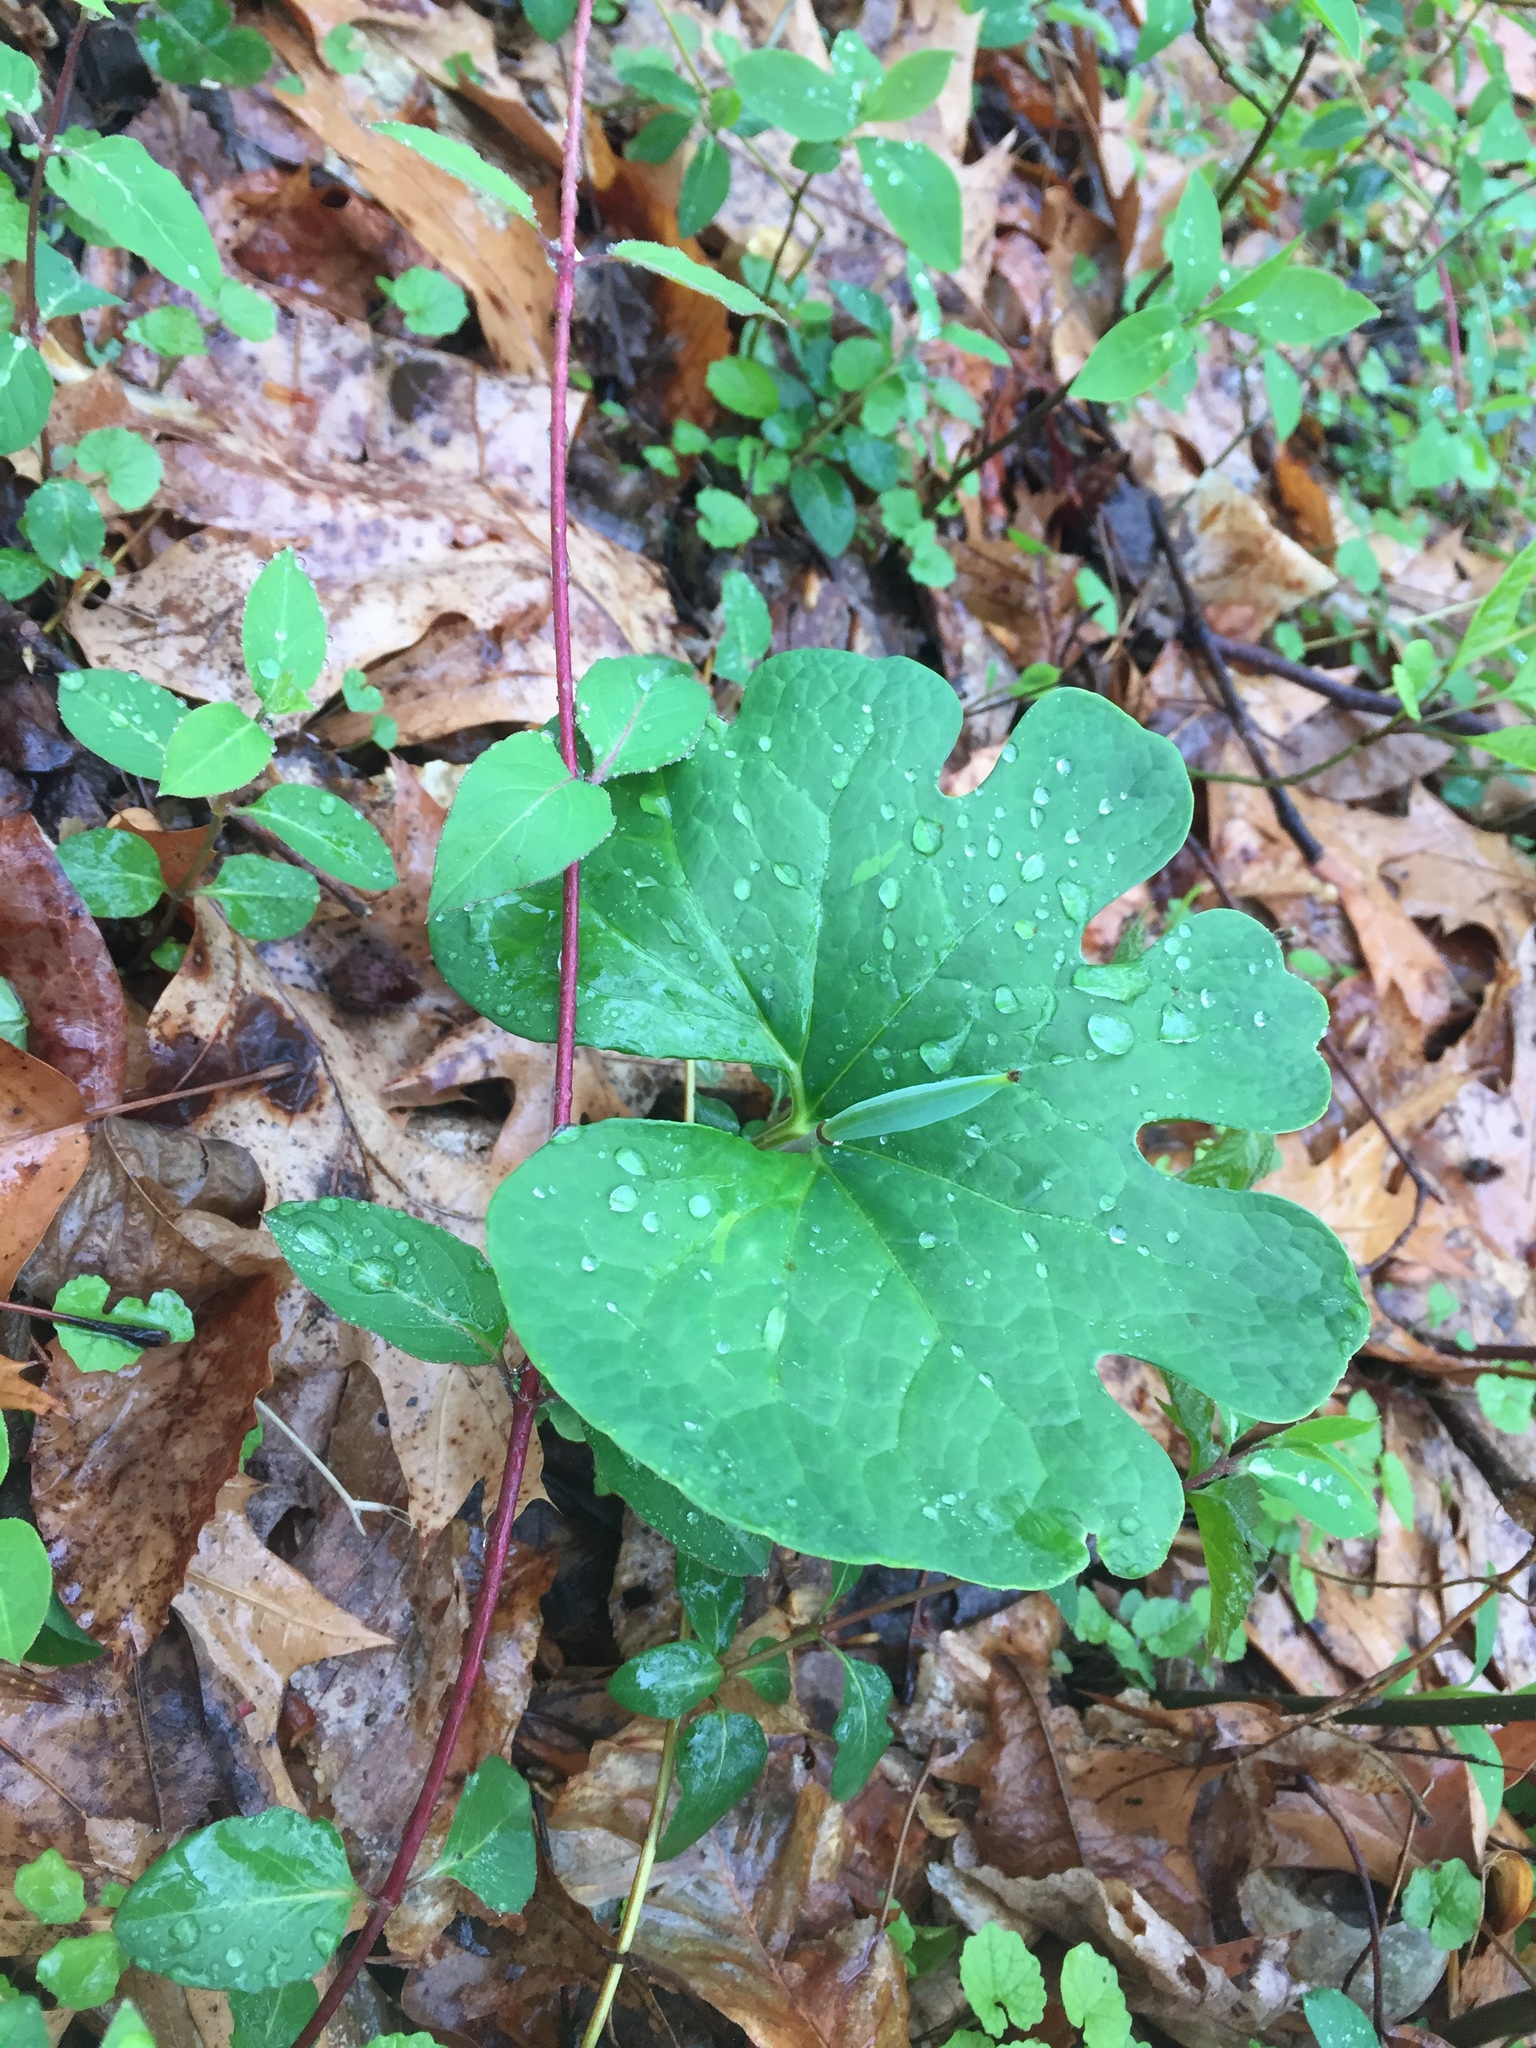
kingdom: Plantae
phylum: Tracheophyta
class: Magnoliopsida
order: Ranunculales
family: Papaveraceae
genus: Sanguinaria
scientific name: Sanguinaria canadensis
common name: Bloodroot
